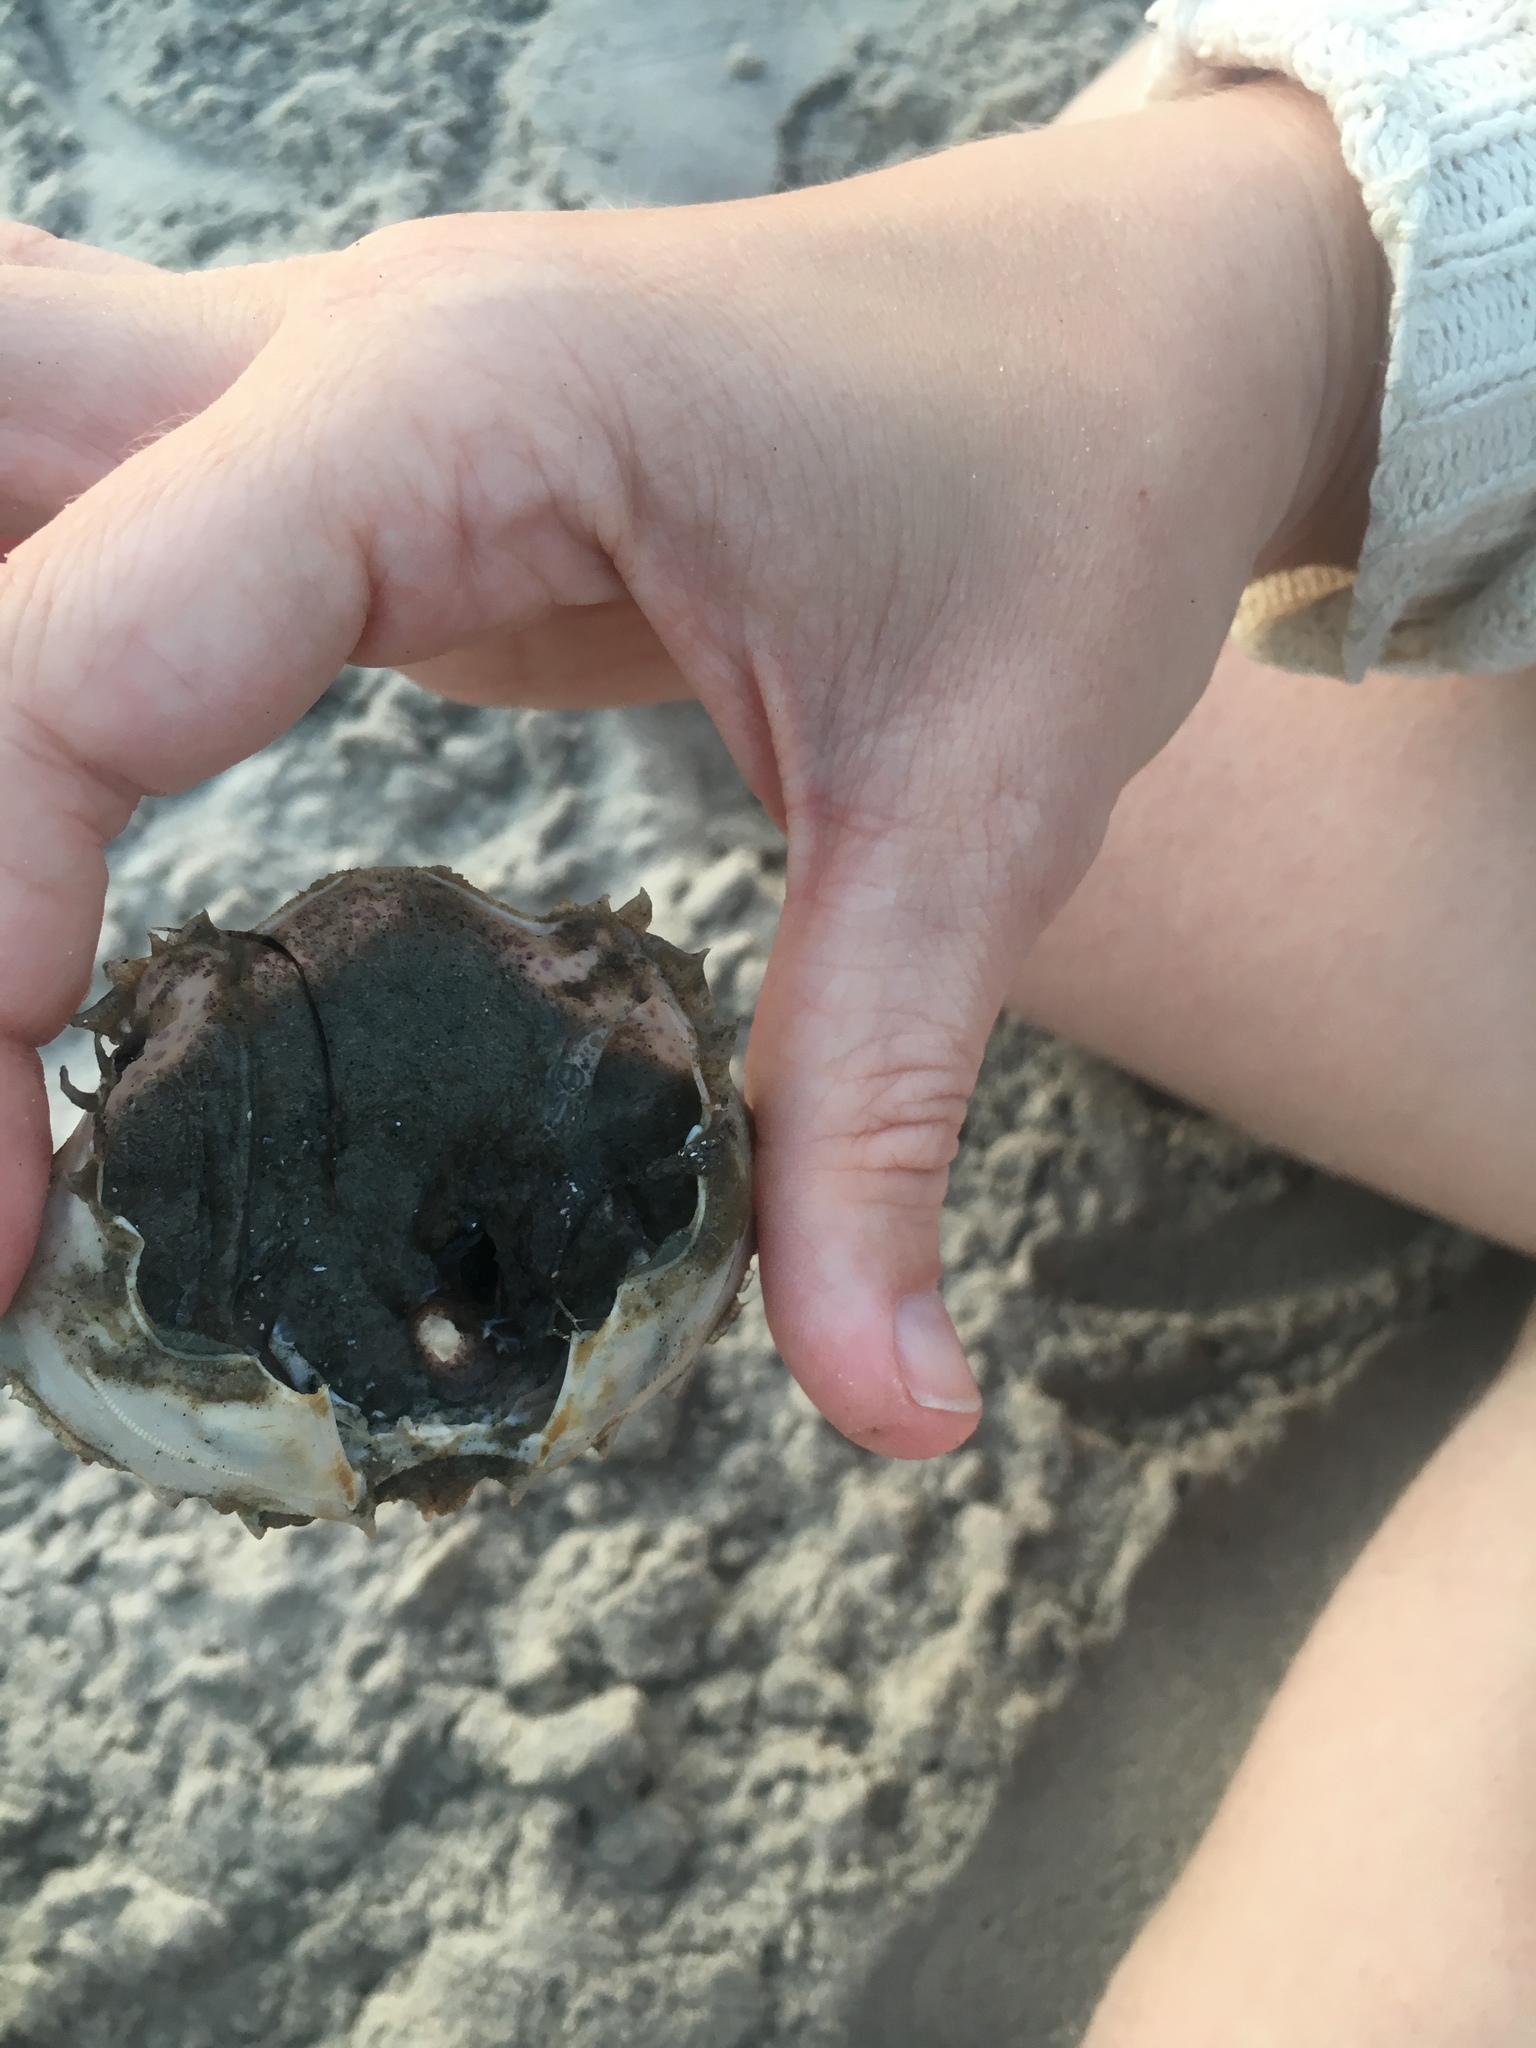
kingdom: Animalia
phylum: Arthropoda
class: Malacostraca
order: Decapoda
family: Ovalipidae
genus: Ovalipes
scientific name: Ovalipes ocellatus
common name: Lady crab
